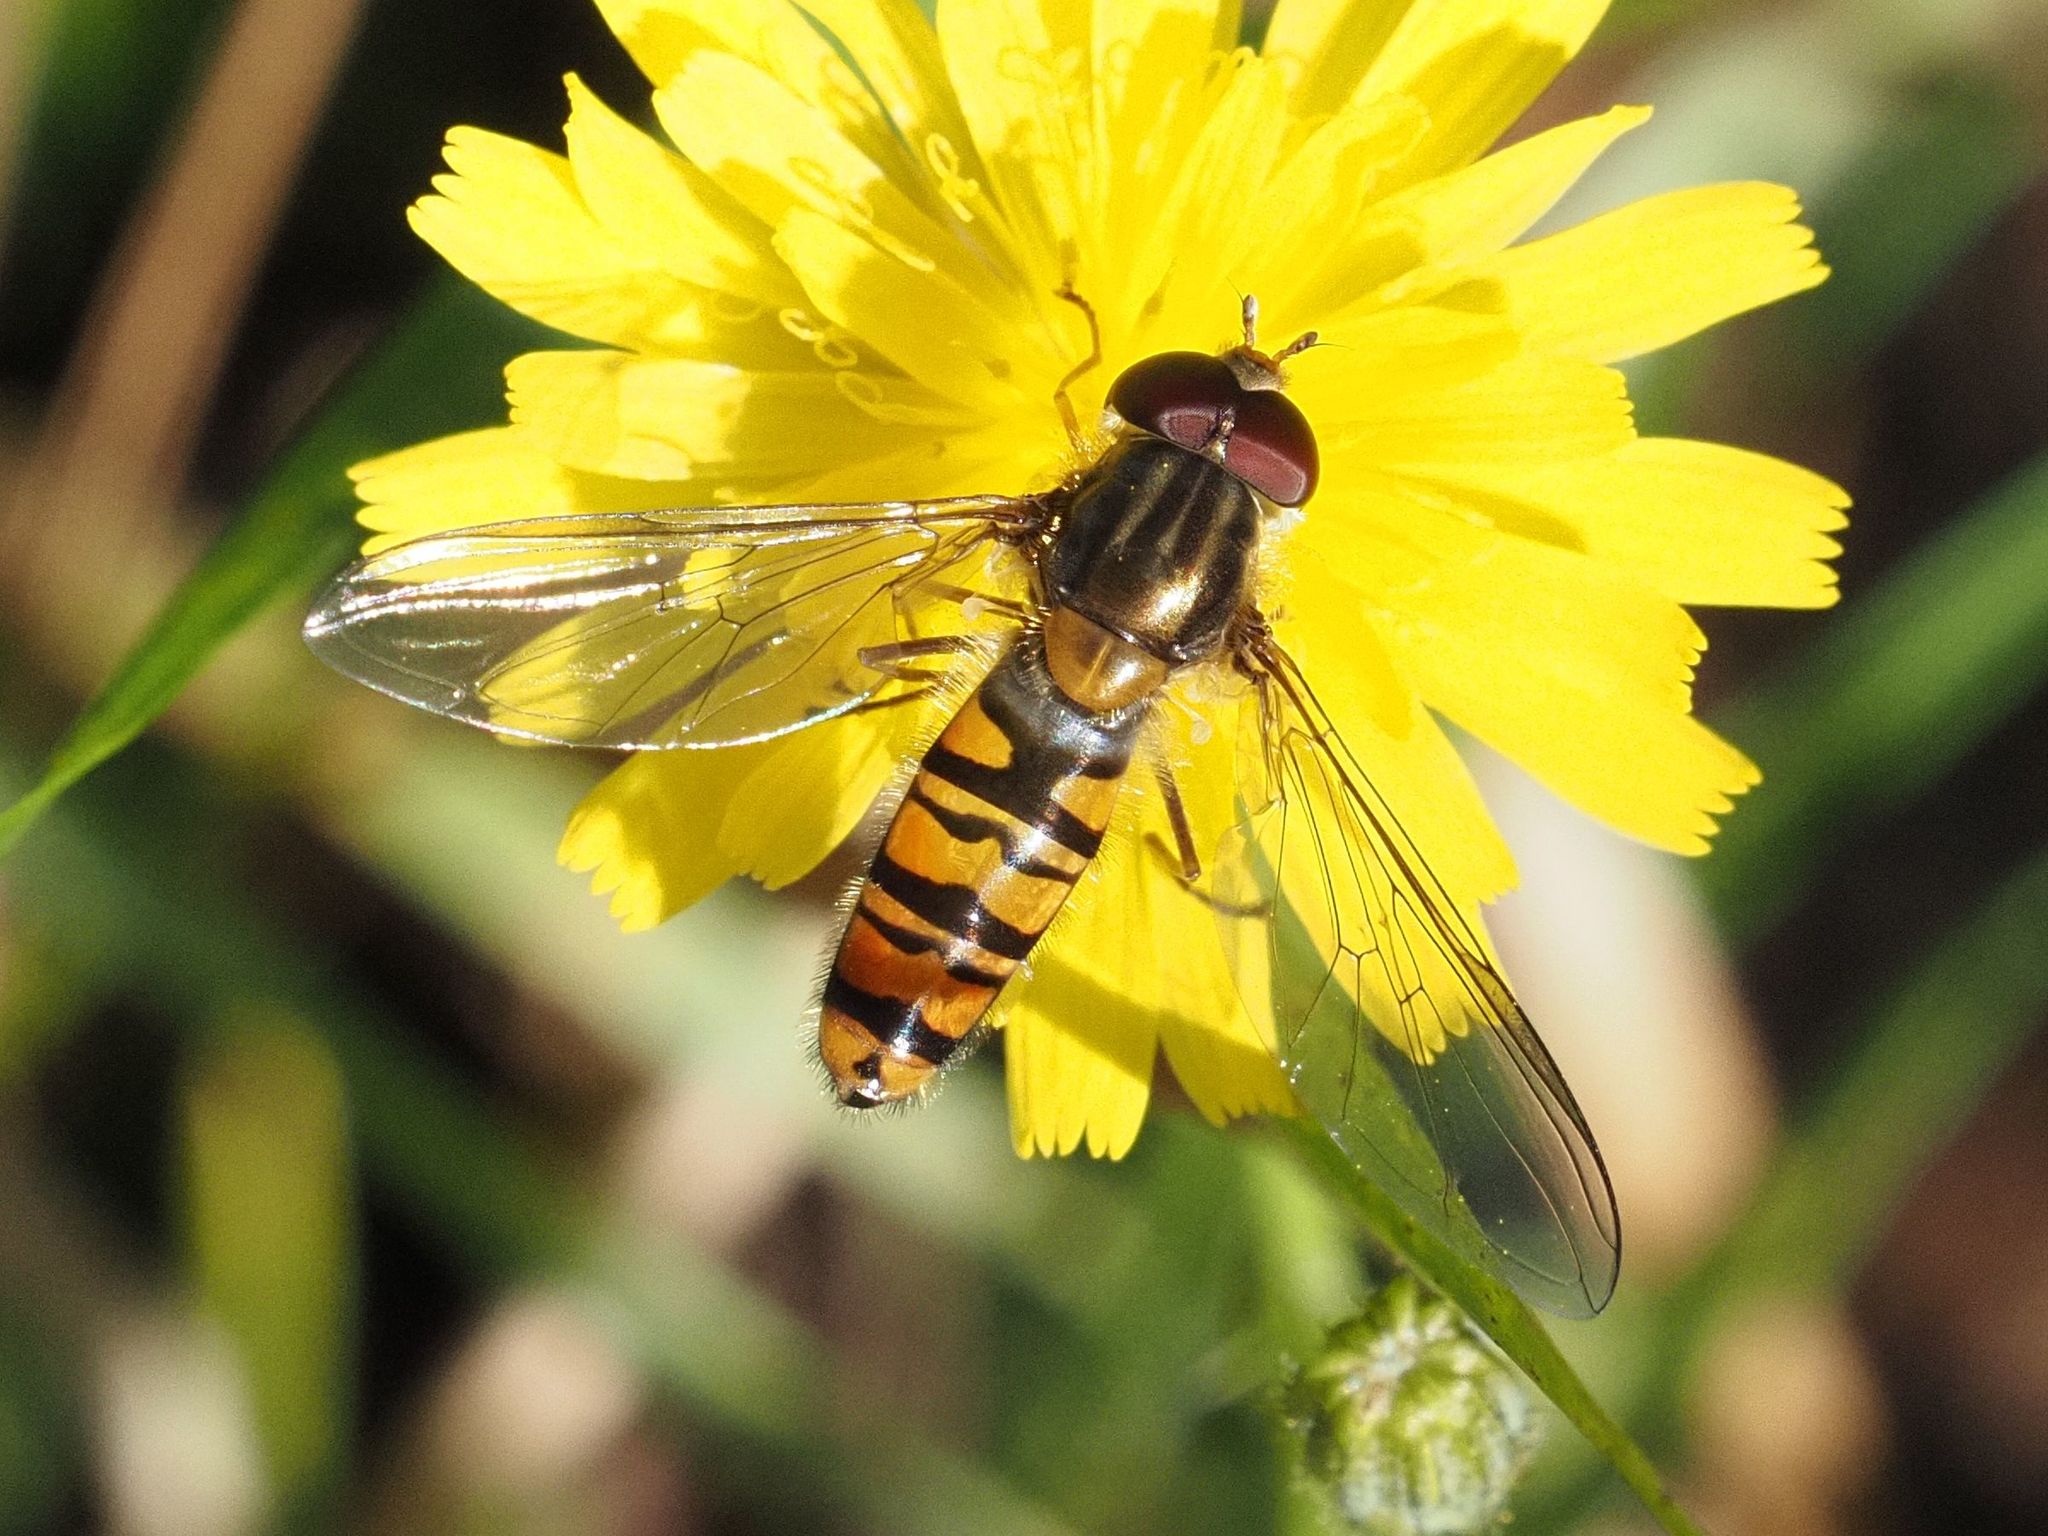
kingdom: Animalia
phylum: Arthropoda
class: Insecta
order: Diptera
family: Syrphidae
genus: Episyrphus
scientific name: Episyrphus balteatus
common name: Marmalade hoverfly
